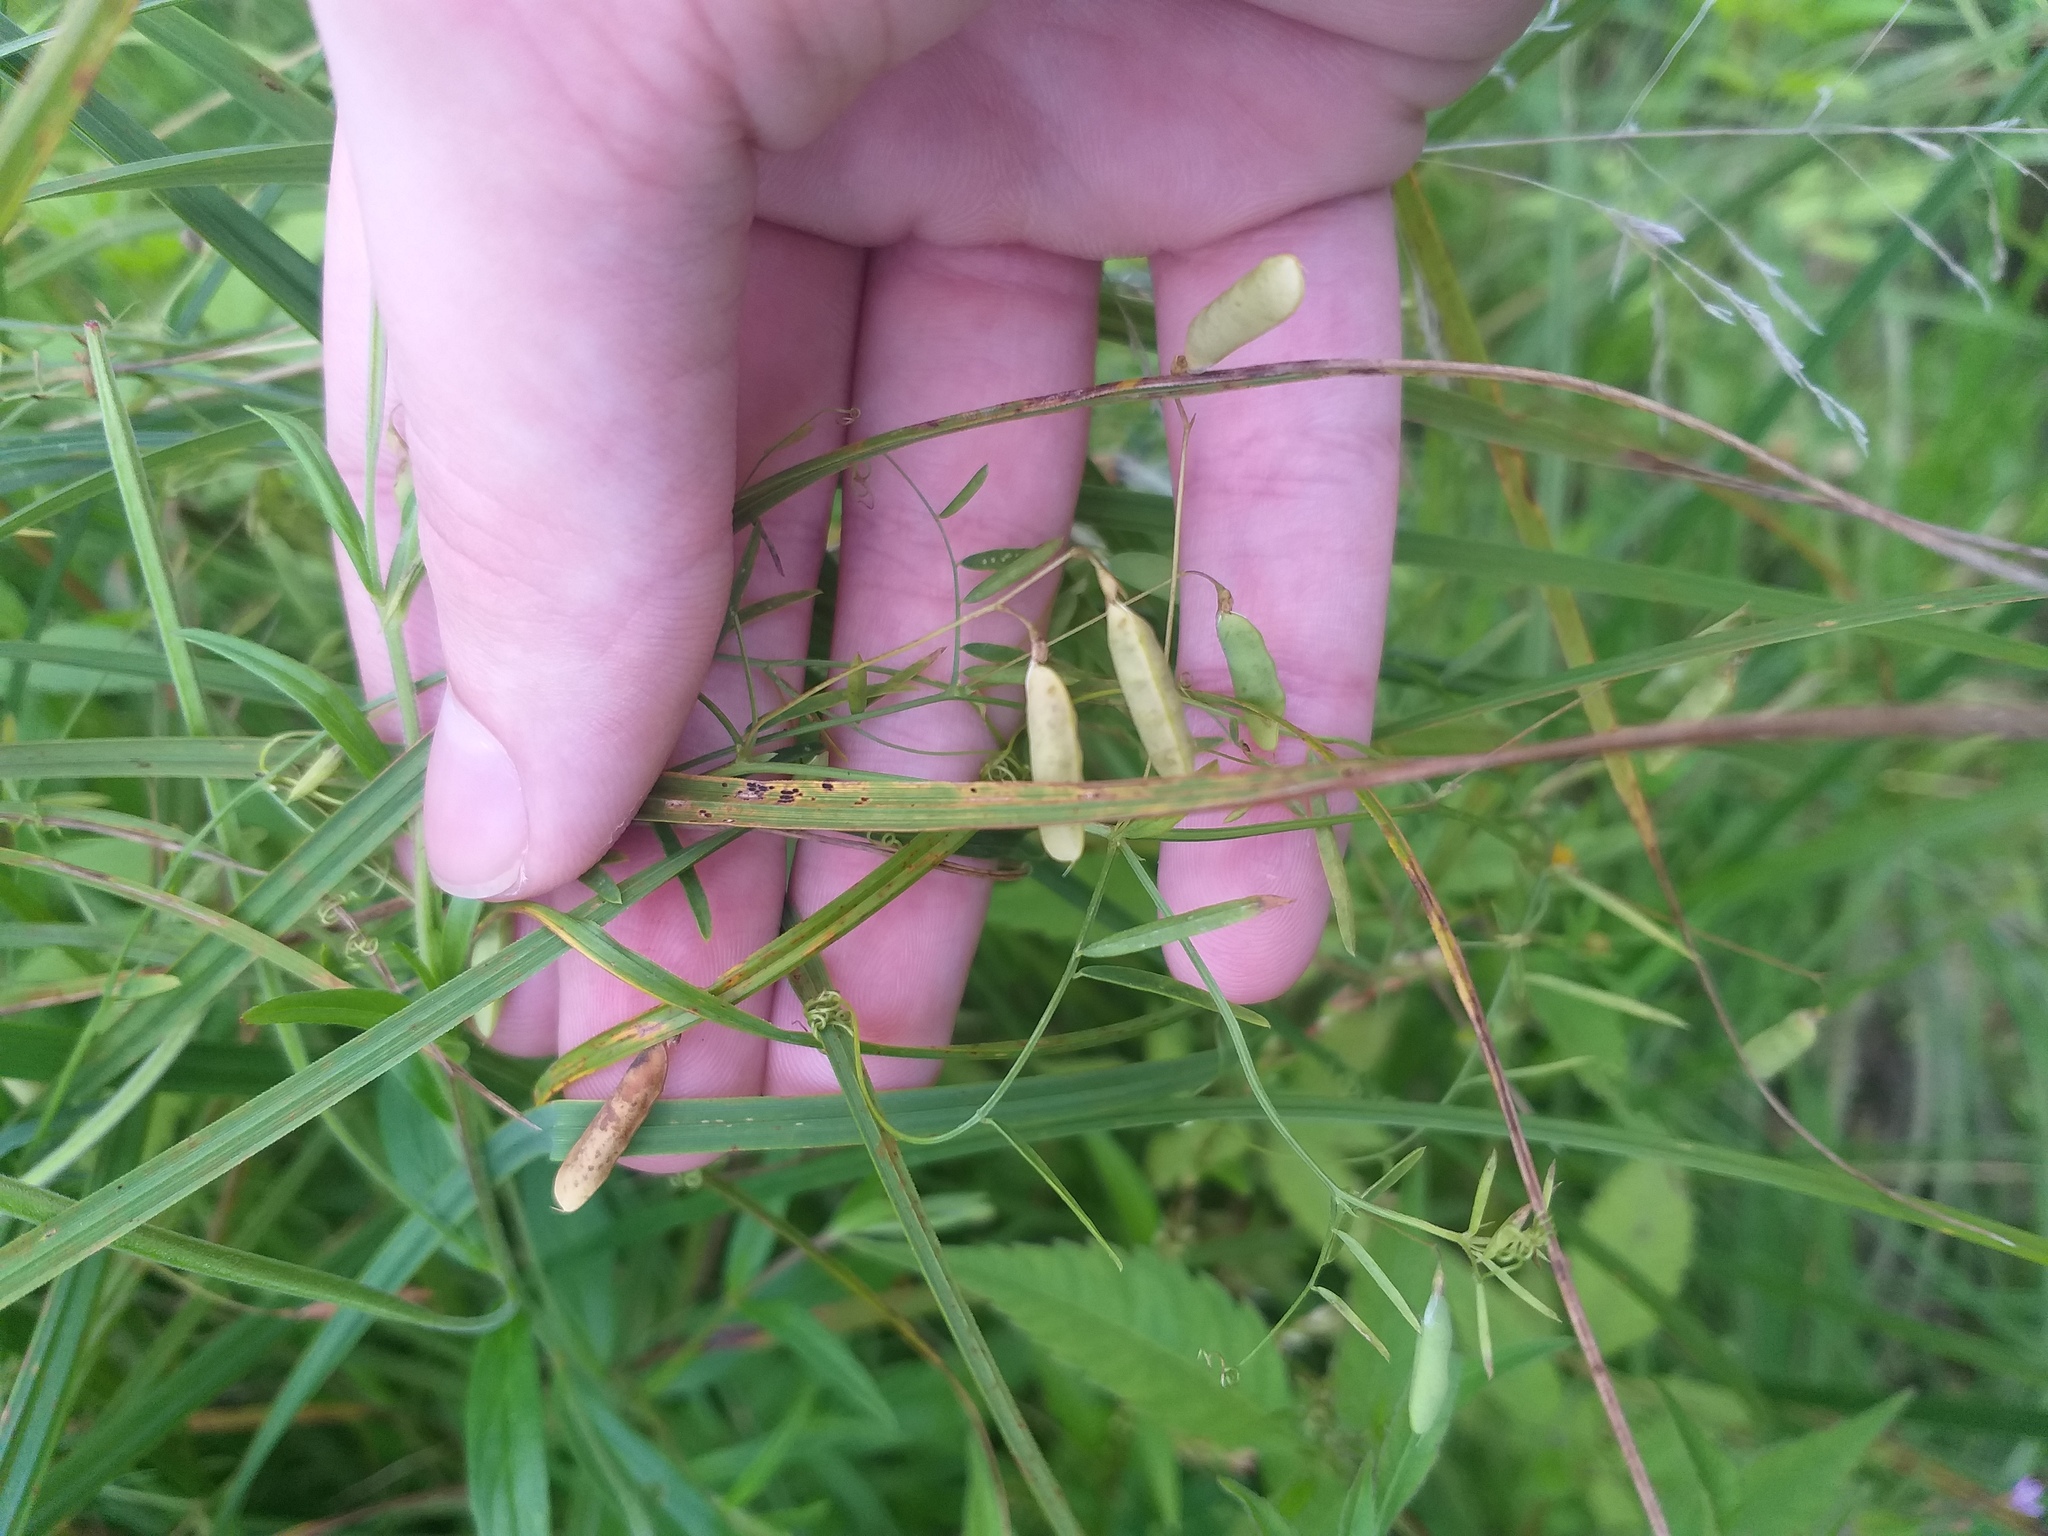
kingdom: Plantae
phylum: Tracheophyta
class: Magnoliopsida
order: Fabales
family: Fabaceae
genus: Vicia
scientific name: Vicia tetrasperma
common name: Smooth tare
